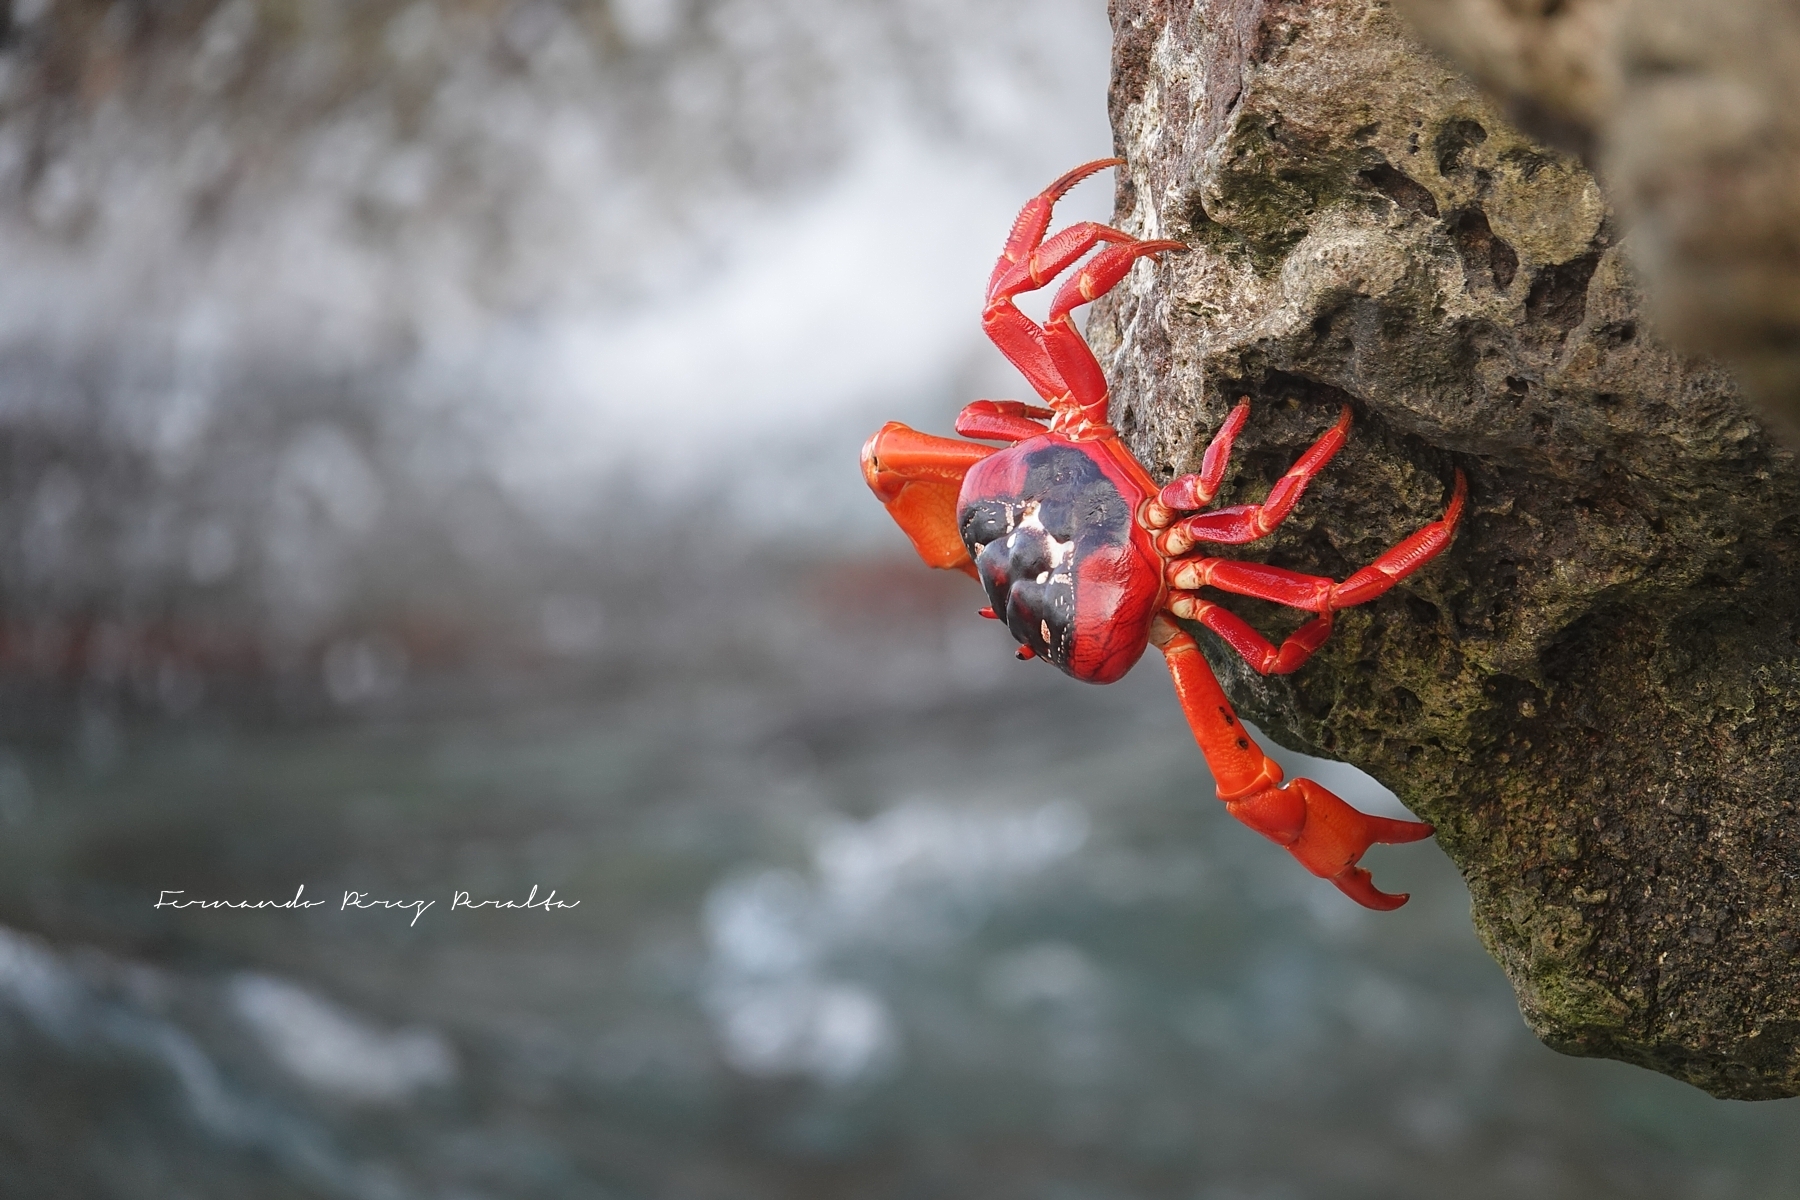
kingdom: Animalia
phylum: Arthropoda
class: Malacostraca
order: Decapoda
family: Gecarcinidae
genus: Gecarcoidea
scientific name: Gecarcoidea natalis
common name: Christmas island red crab
